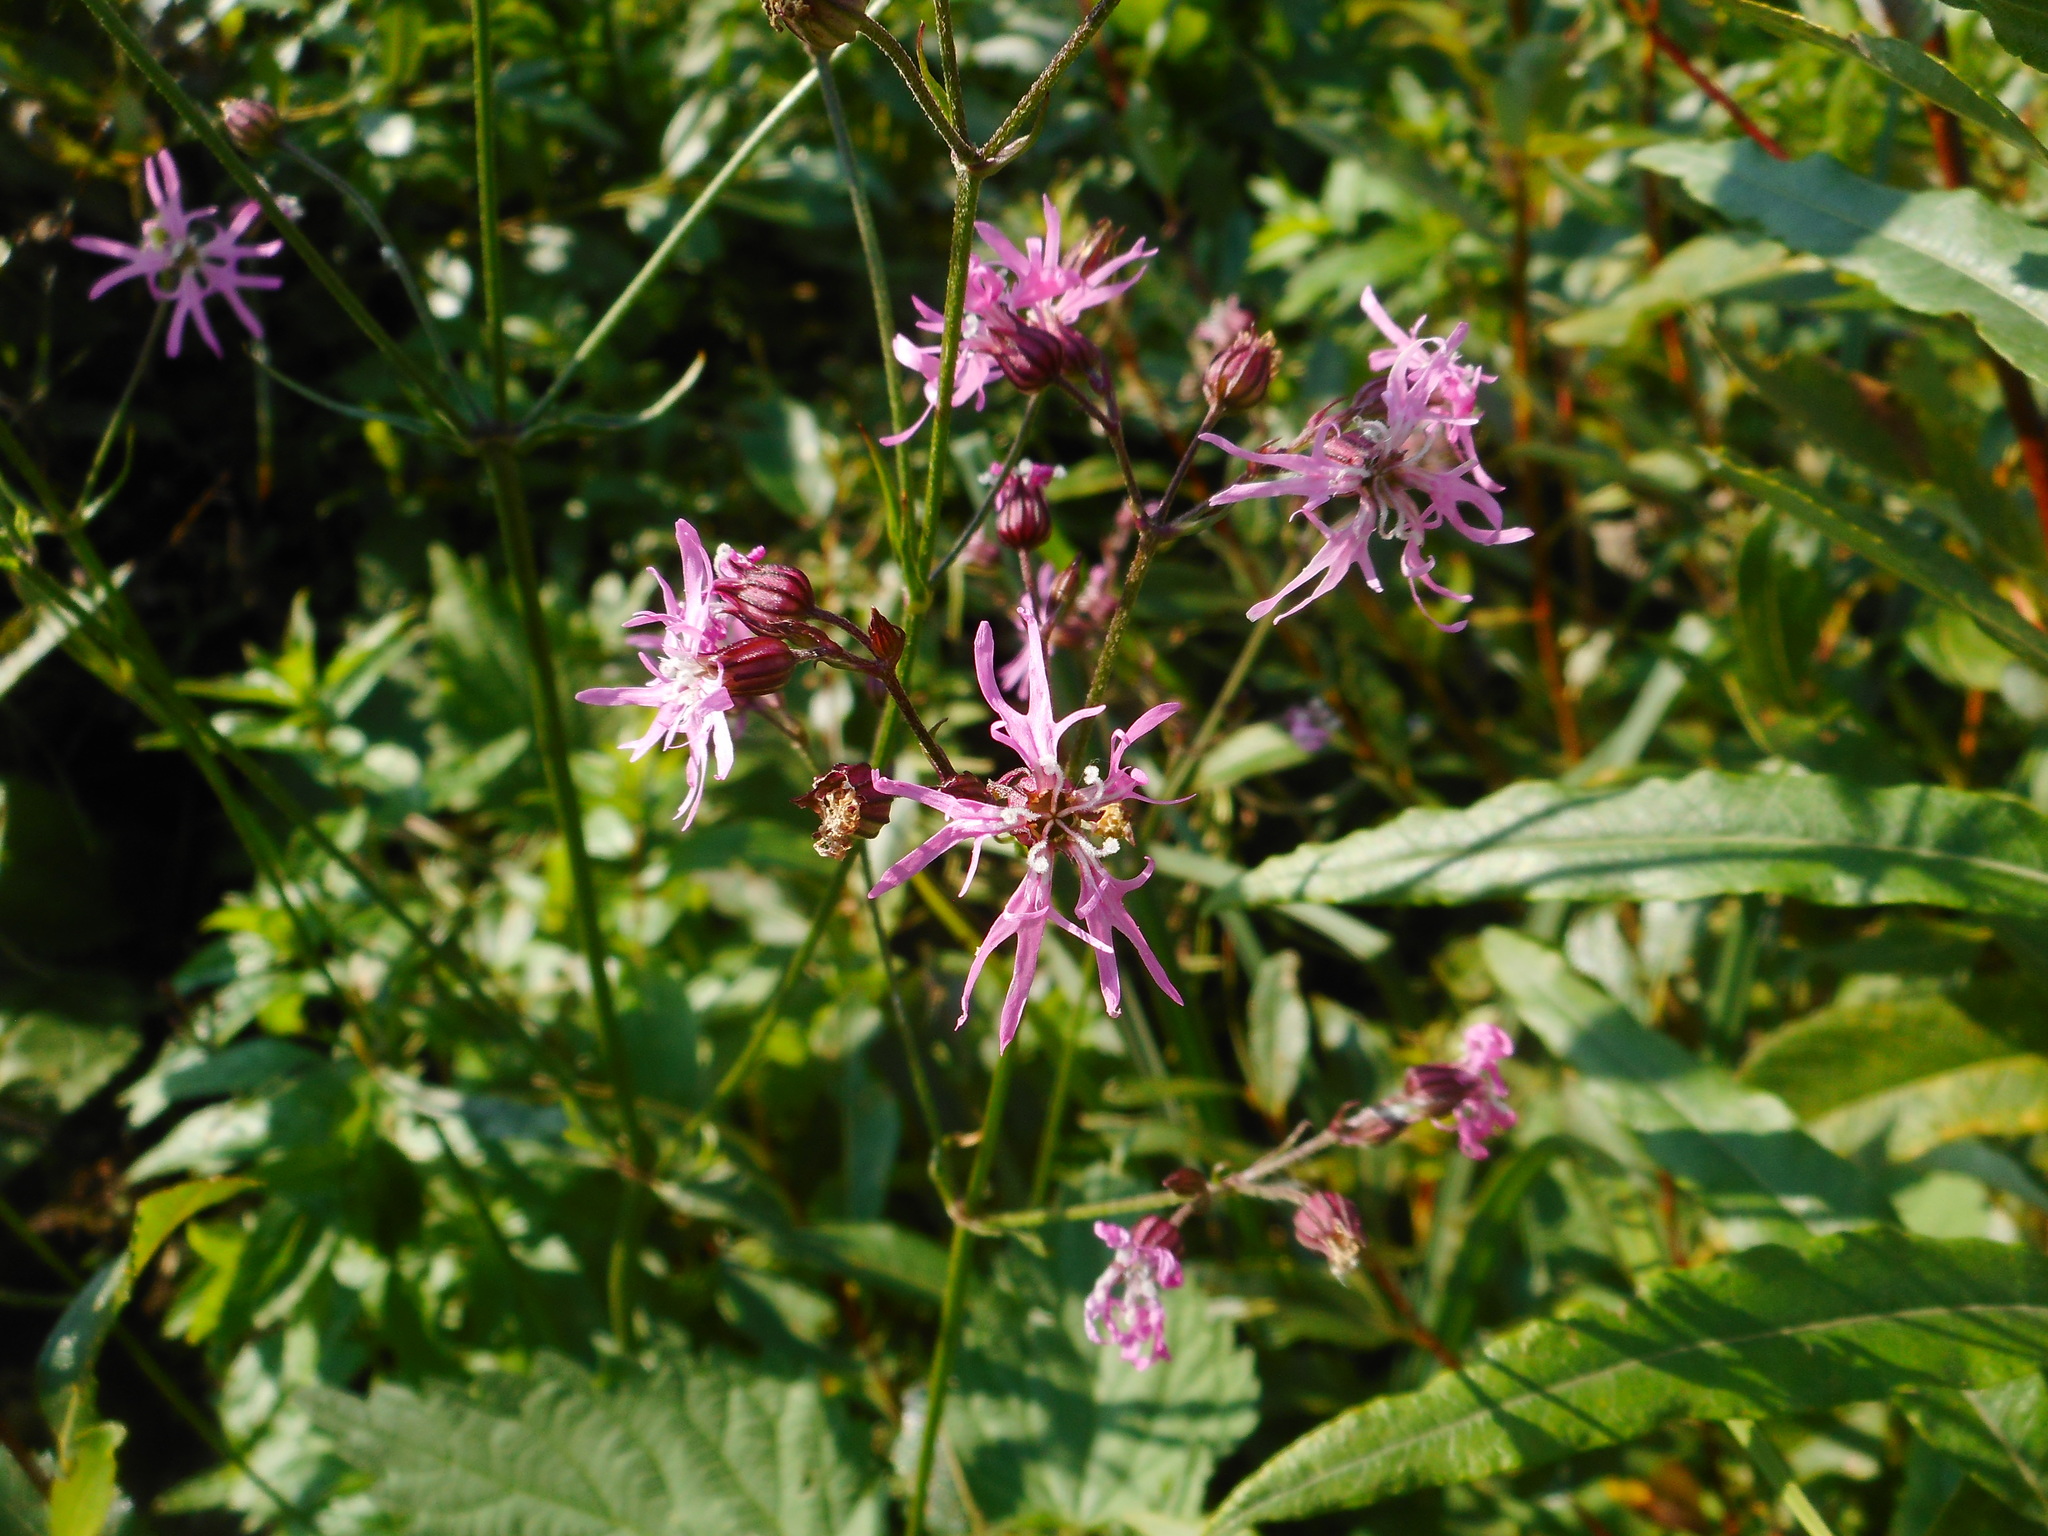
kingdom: Plantae
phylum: Tracheophyta
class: Magnoliopsida
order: Caryophyllales
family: Caryophyllaceae
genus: Silene
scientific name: Silene flos-cuculi
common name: Ragged-robin
